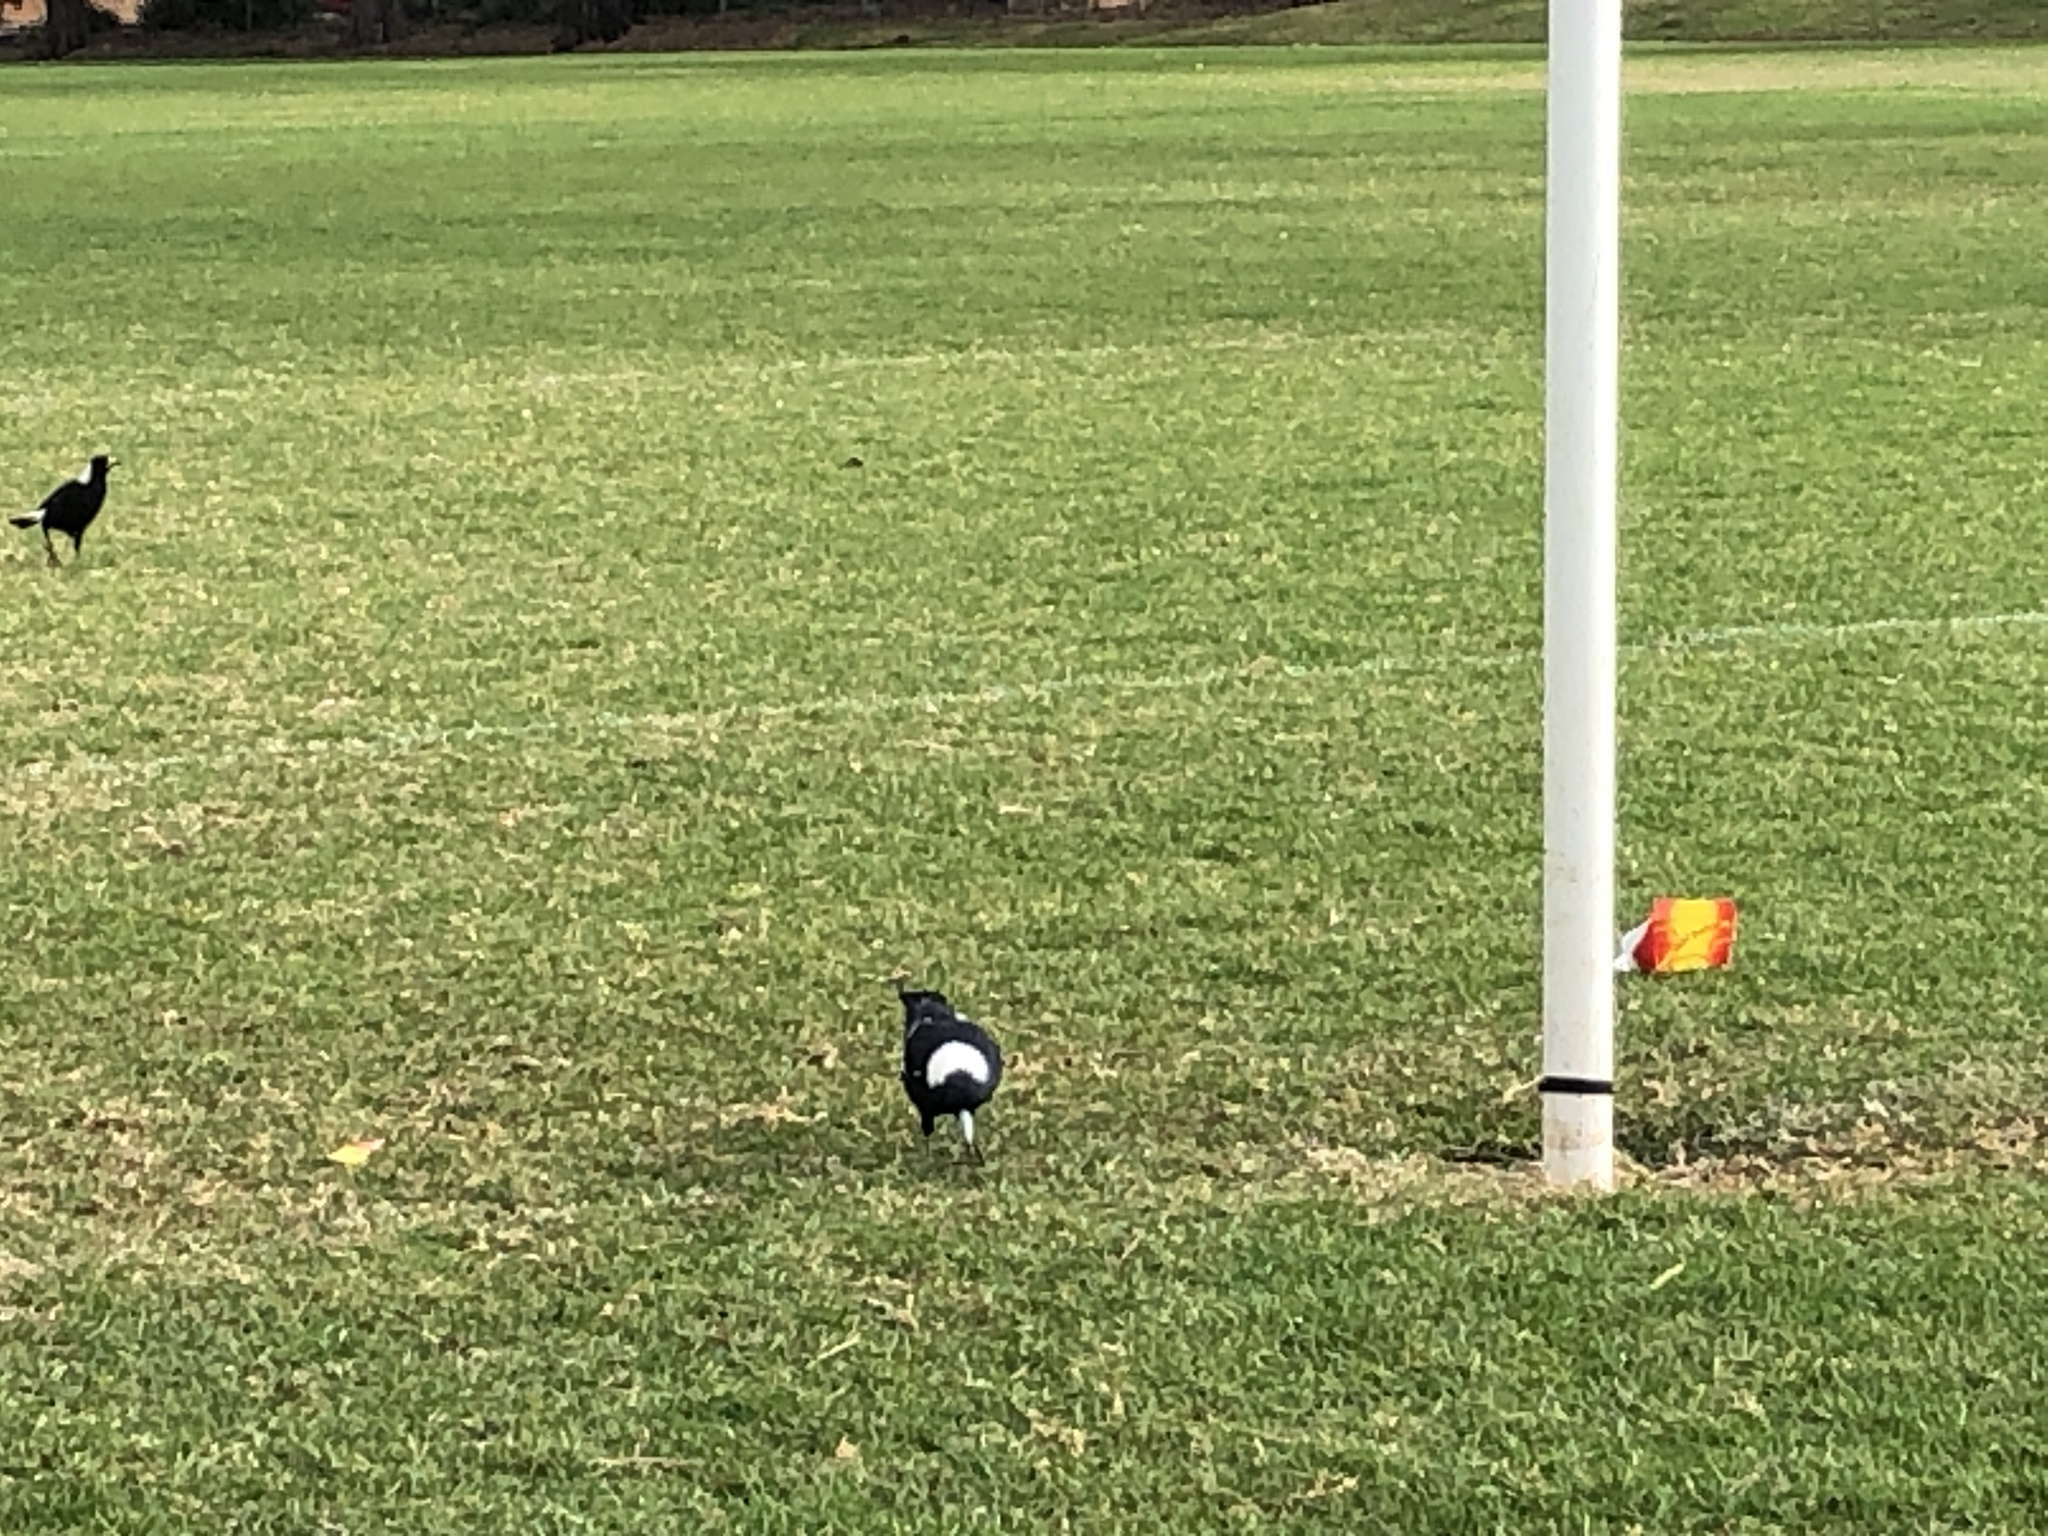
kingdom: Animalia
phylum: Chordata
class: Aves
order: Passeriformes
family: Cracticidae
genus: Gymnorhina
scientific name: Gymnorhina tibicen
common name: Australian magpie
